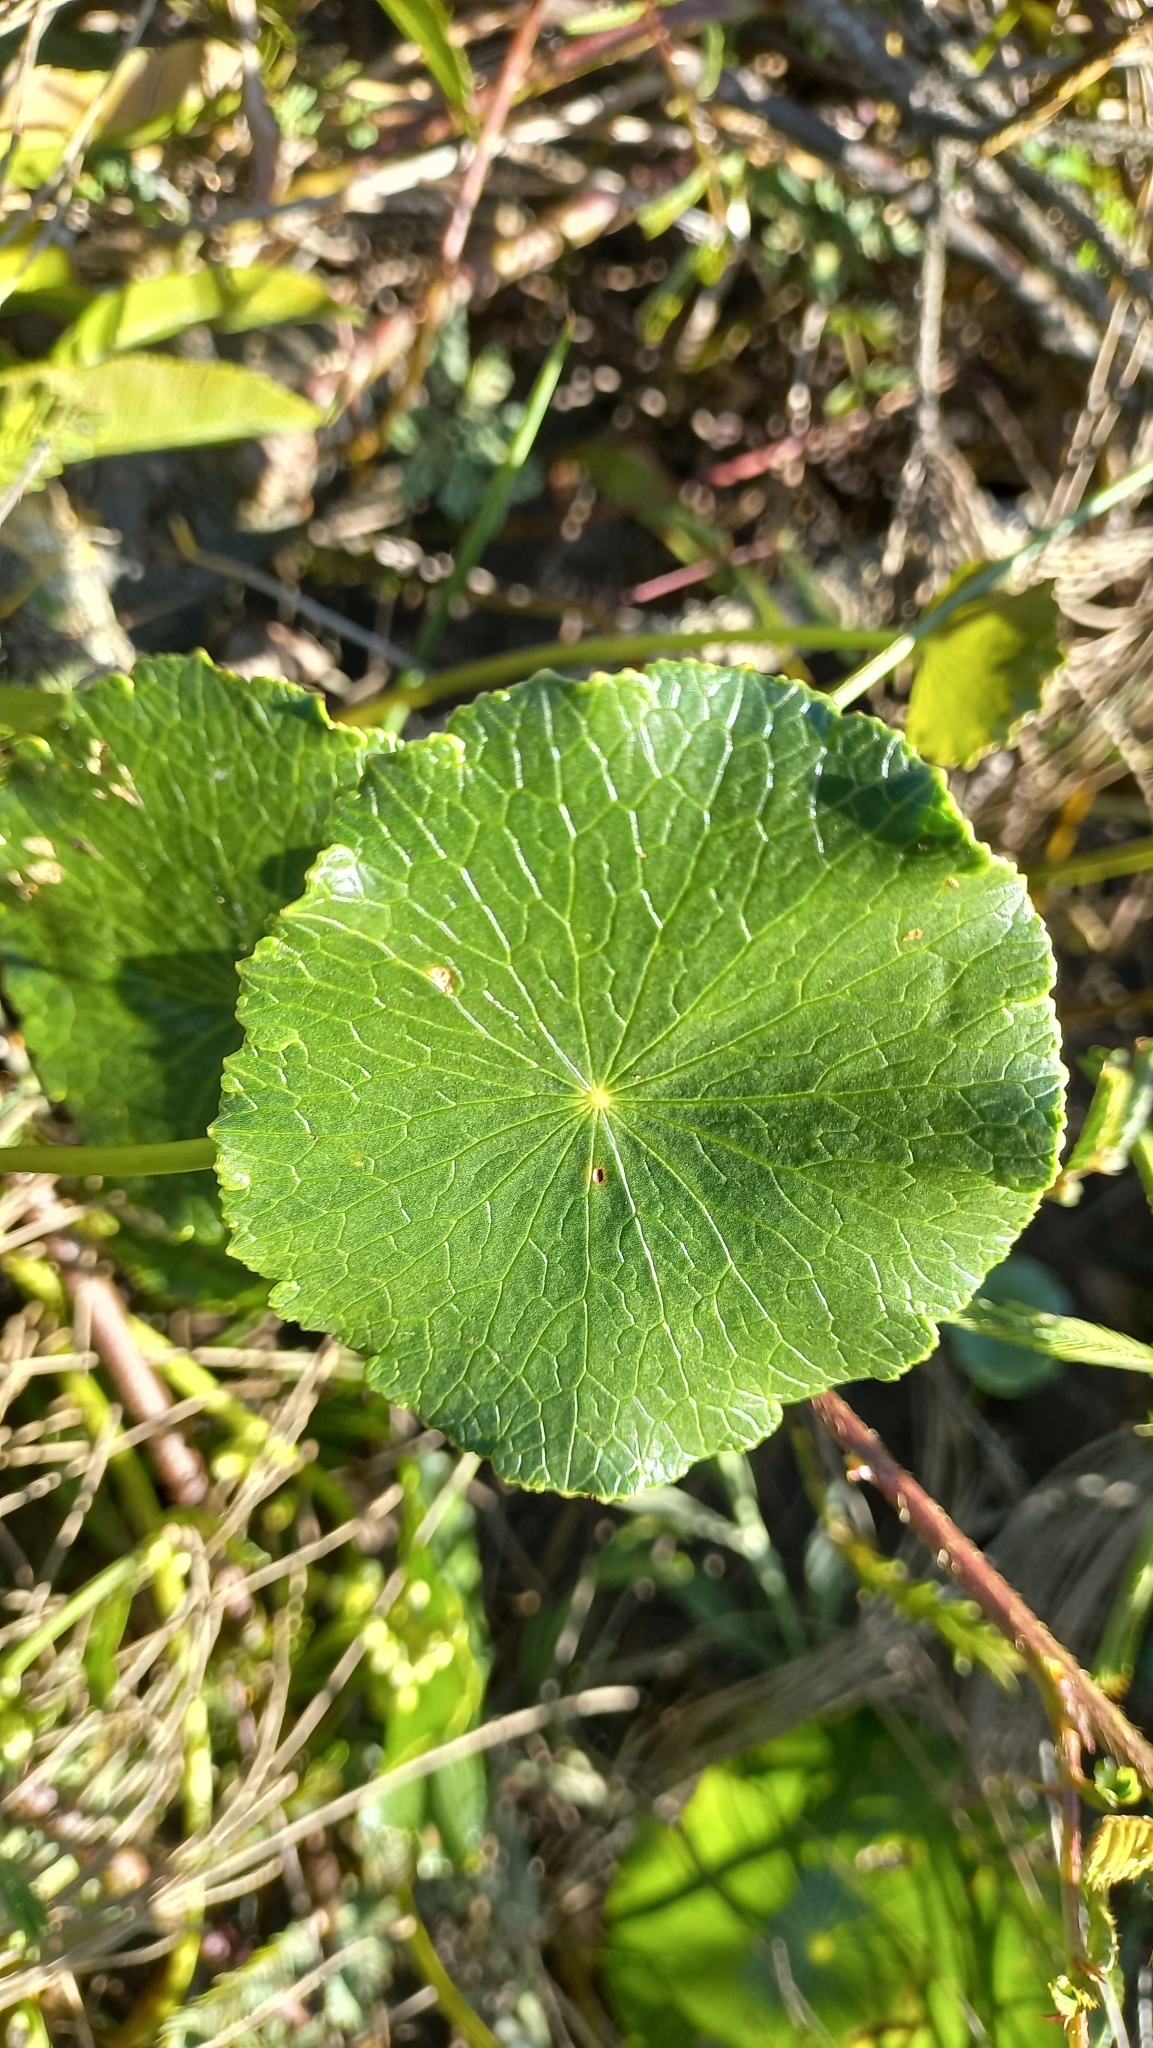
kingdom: Plantae
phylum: Tracheophyta
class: Magnoliopsida
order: Apiales
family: Araliaceae
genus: Hydrocotyle
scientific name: Hydrocotyle bonariensis
